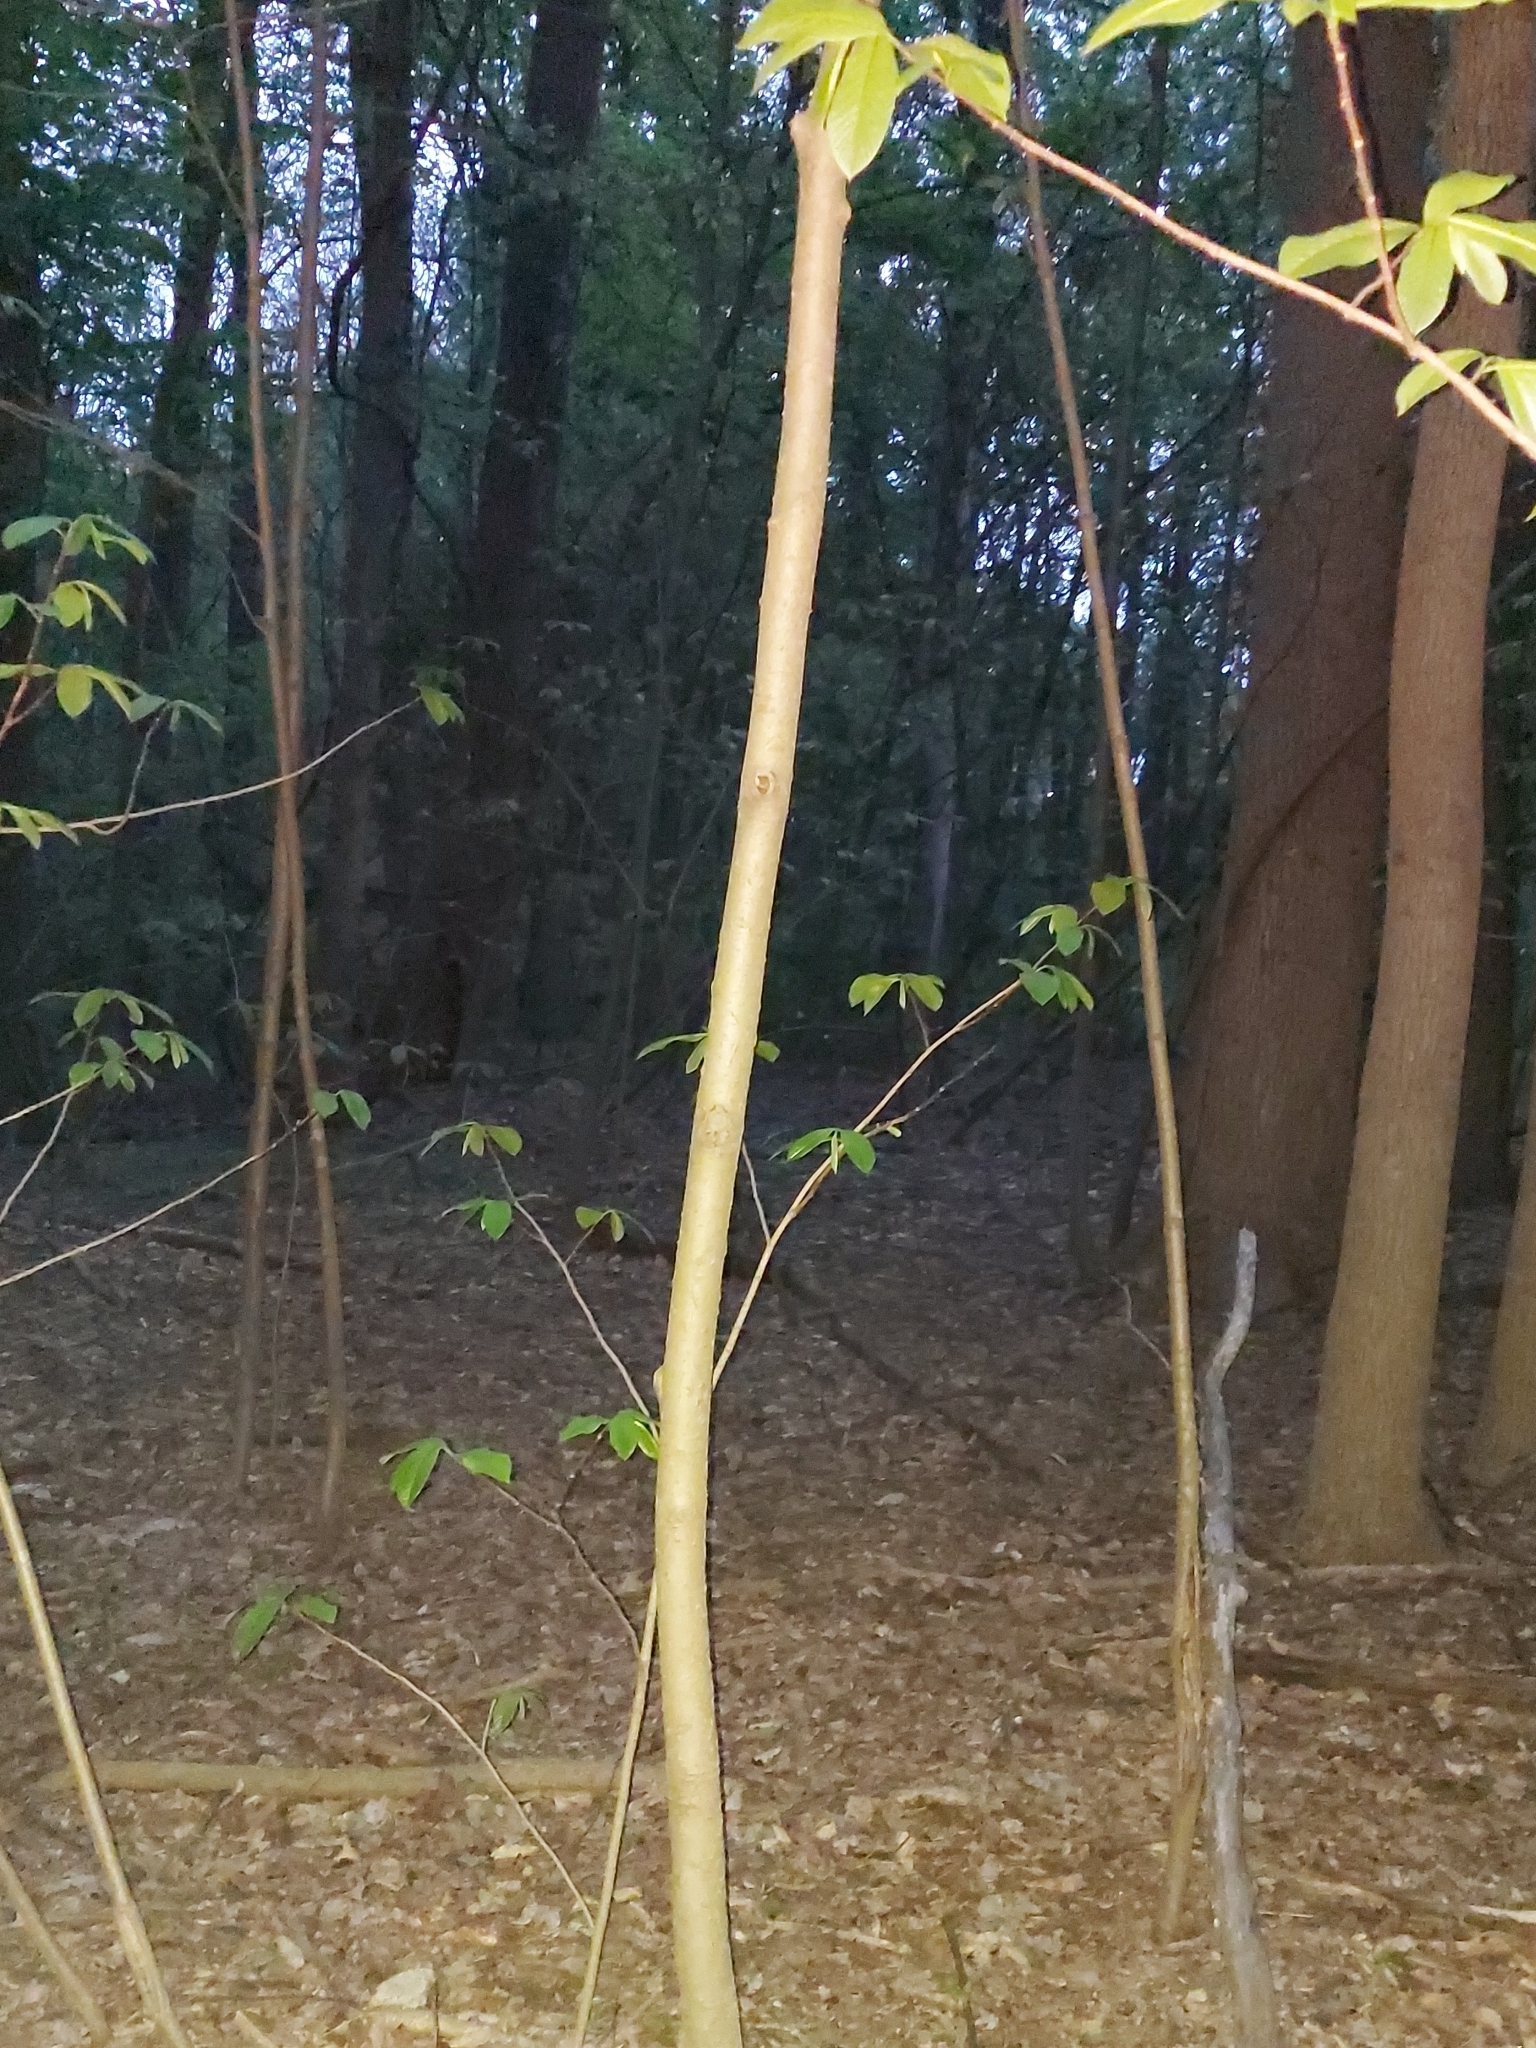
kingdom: Plantae
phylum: Tracheophyta
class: Magnoliopsida
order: Magnoliales
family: Annonaceae
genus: Asimina
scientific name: Asimina triloba
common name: Dog-banana
